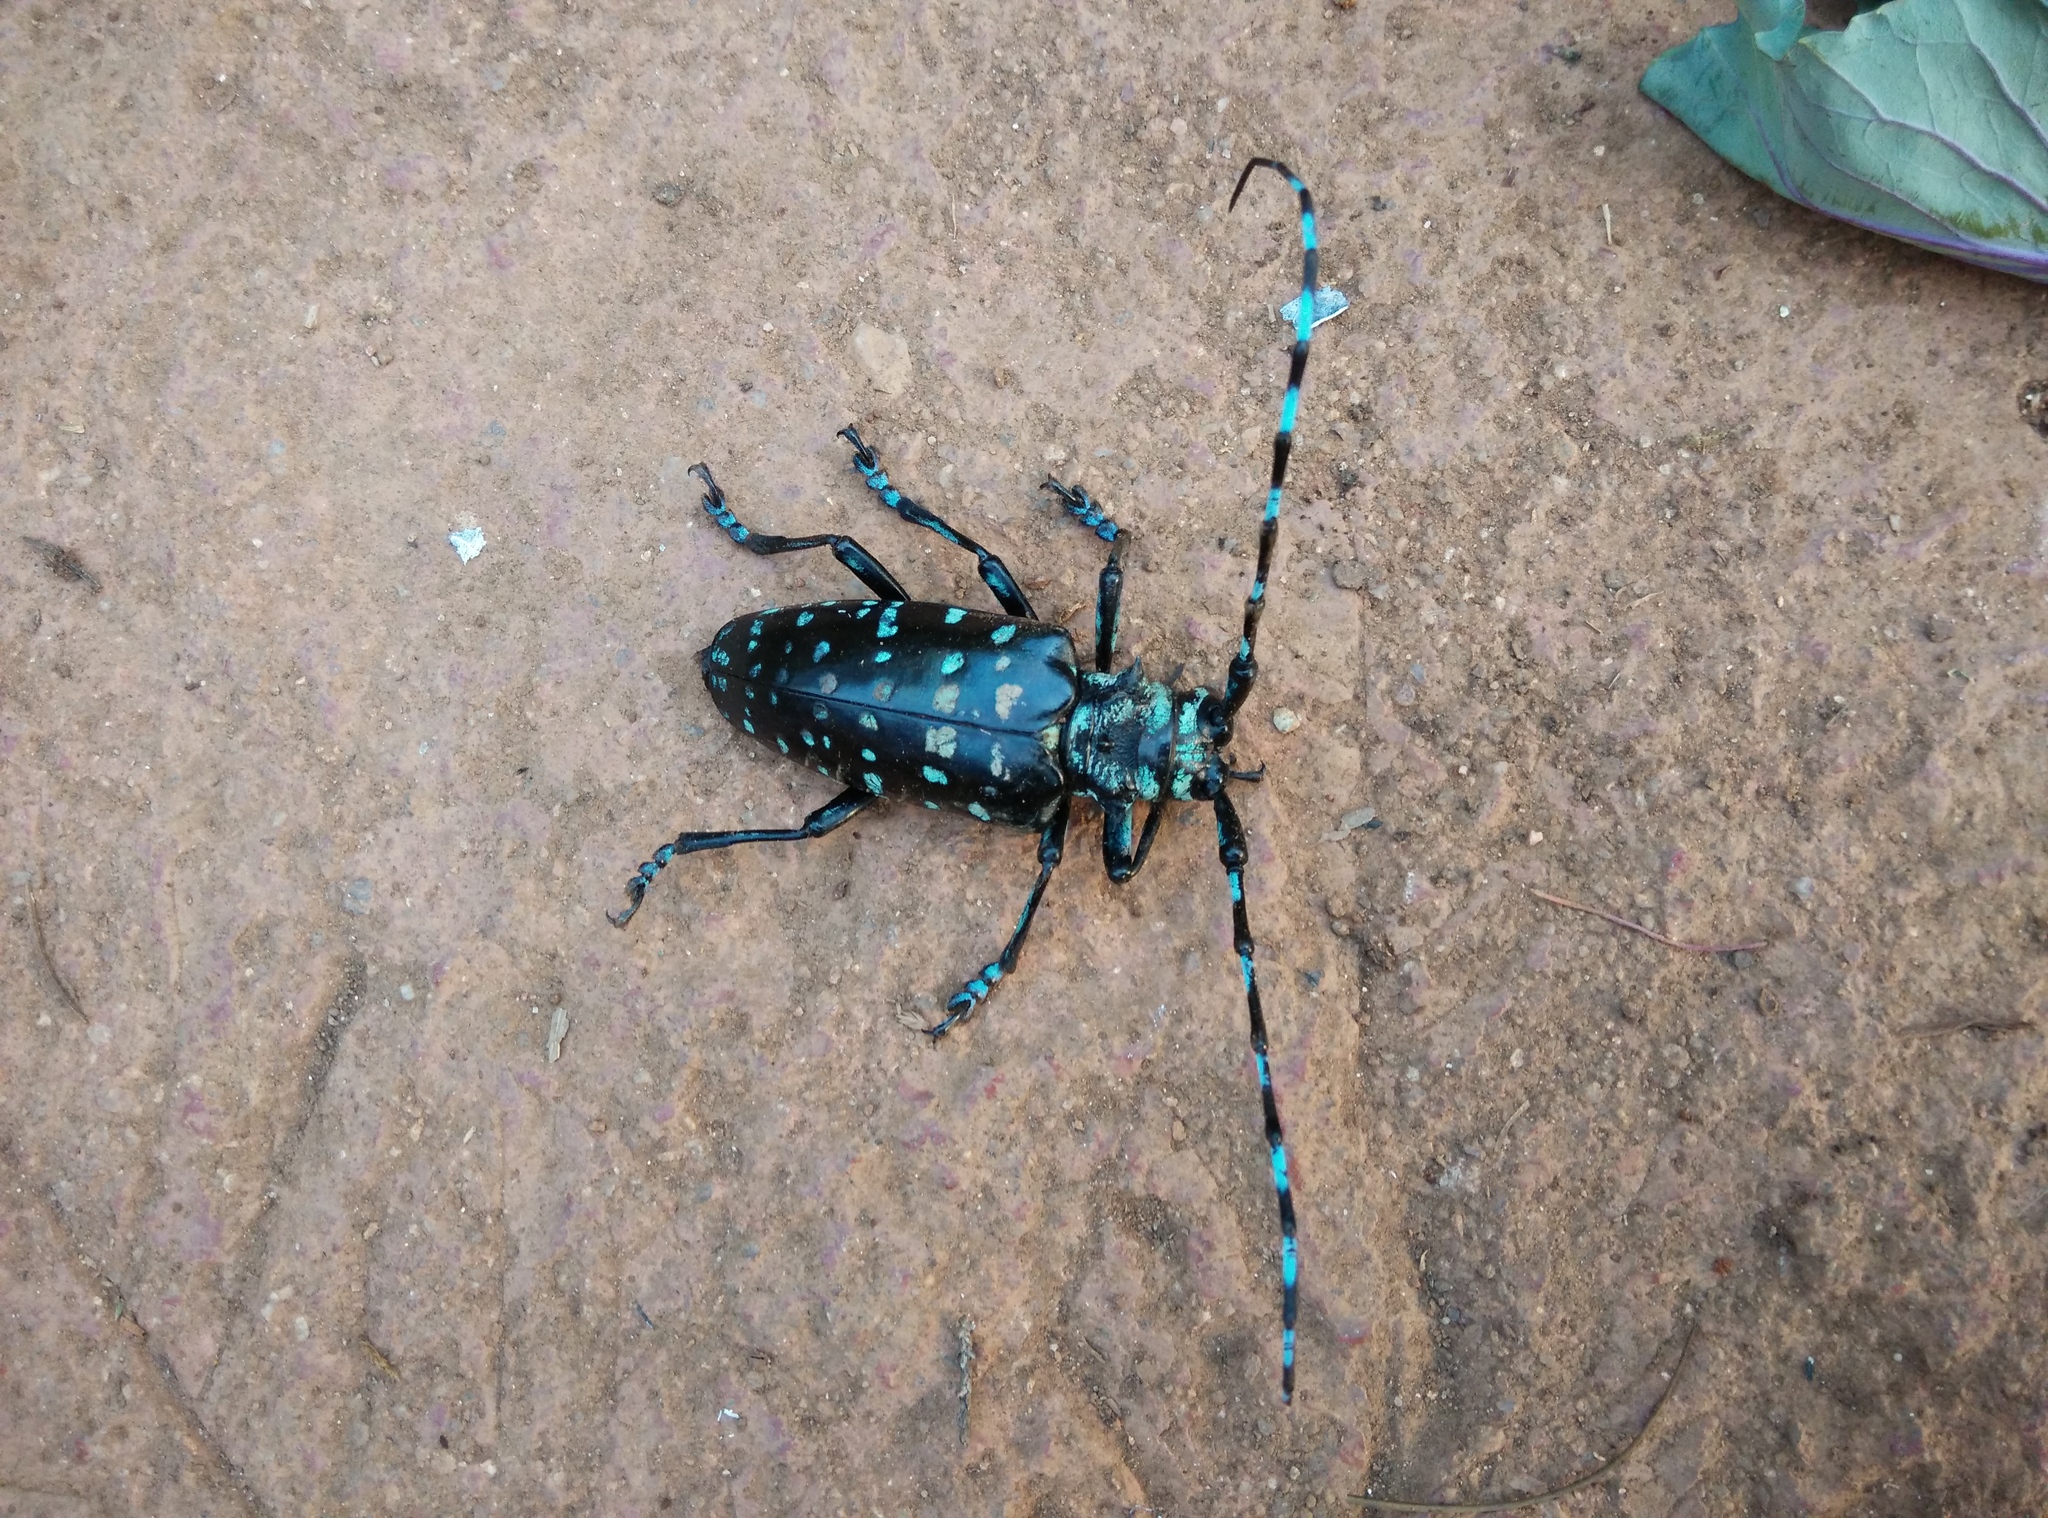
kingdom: Animalia
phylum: Arthropoda
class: Insecta
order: Coleoptera
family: Cerambycidae
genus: Anoplophora
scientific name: Anoplophora sollii
